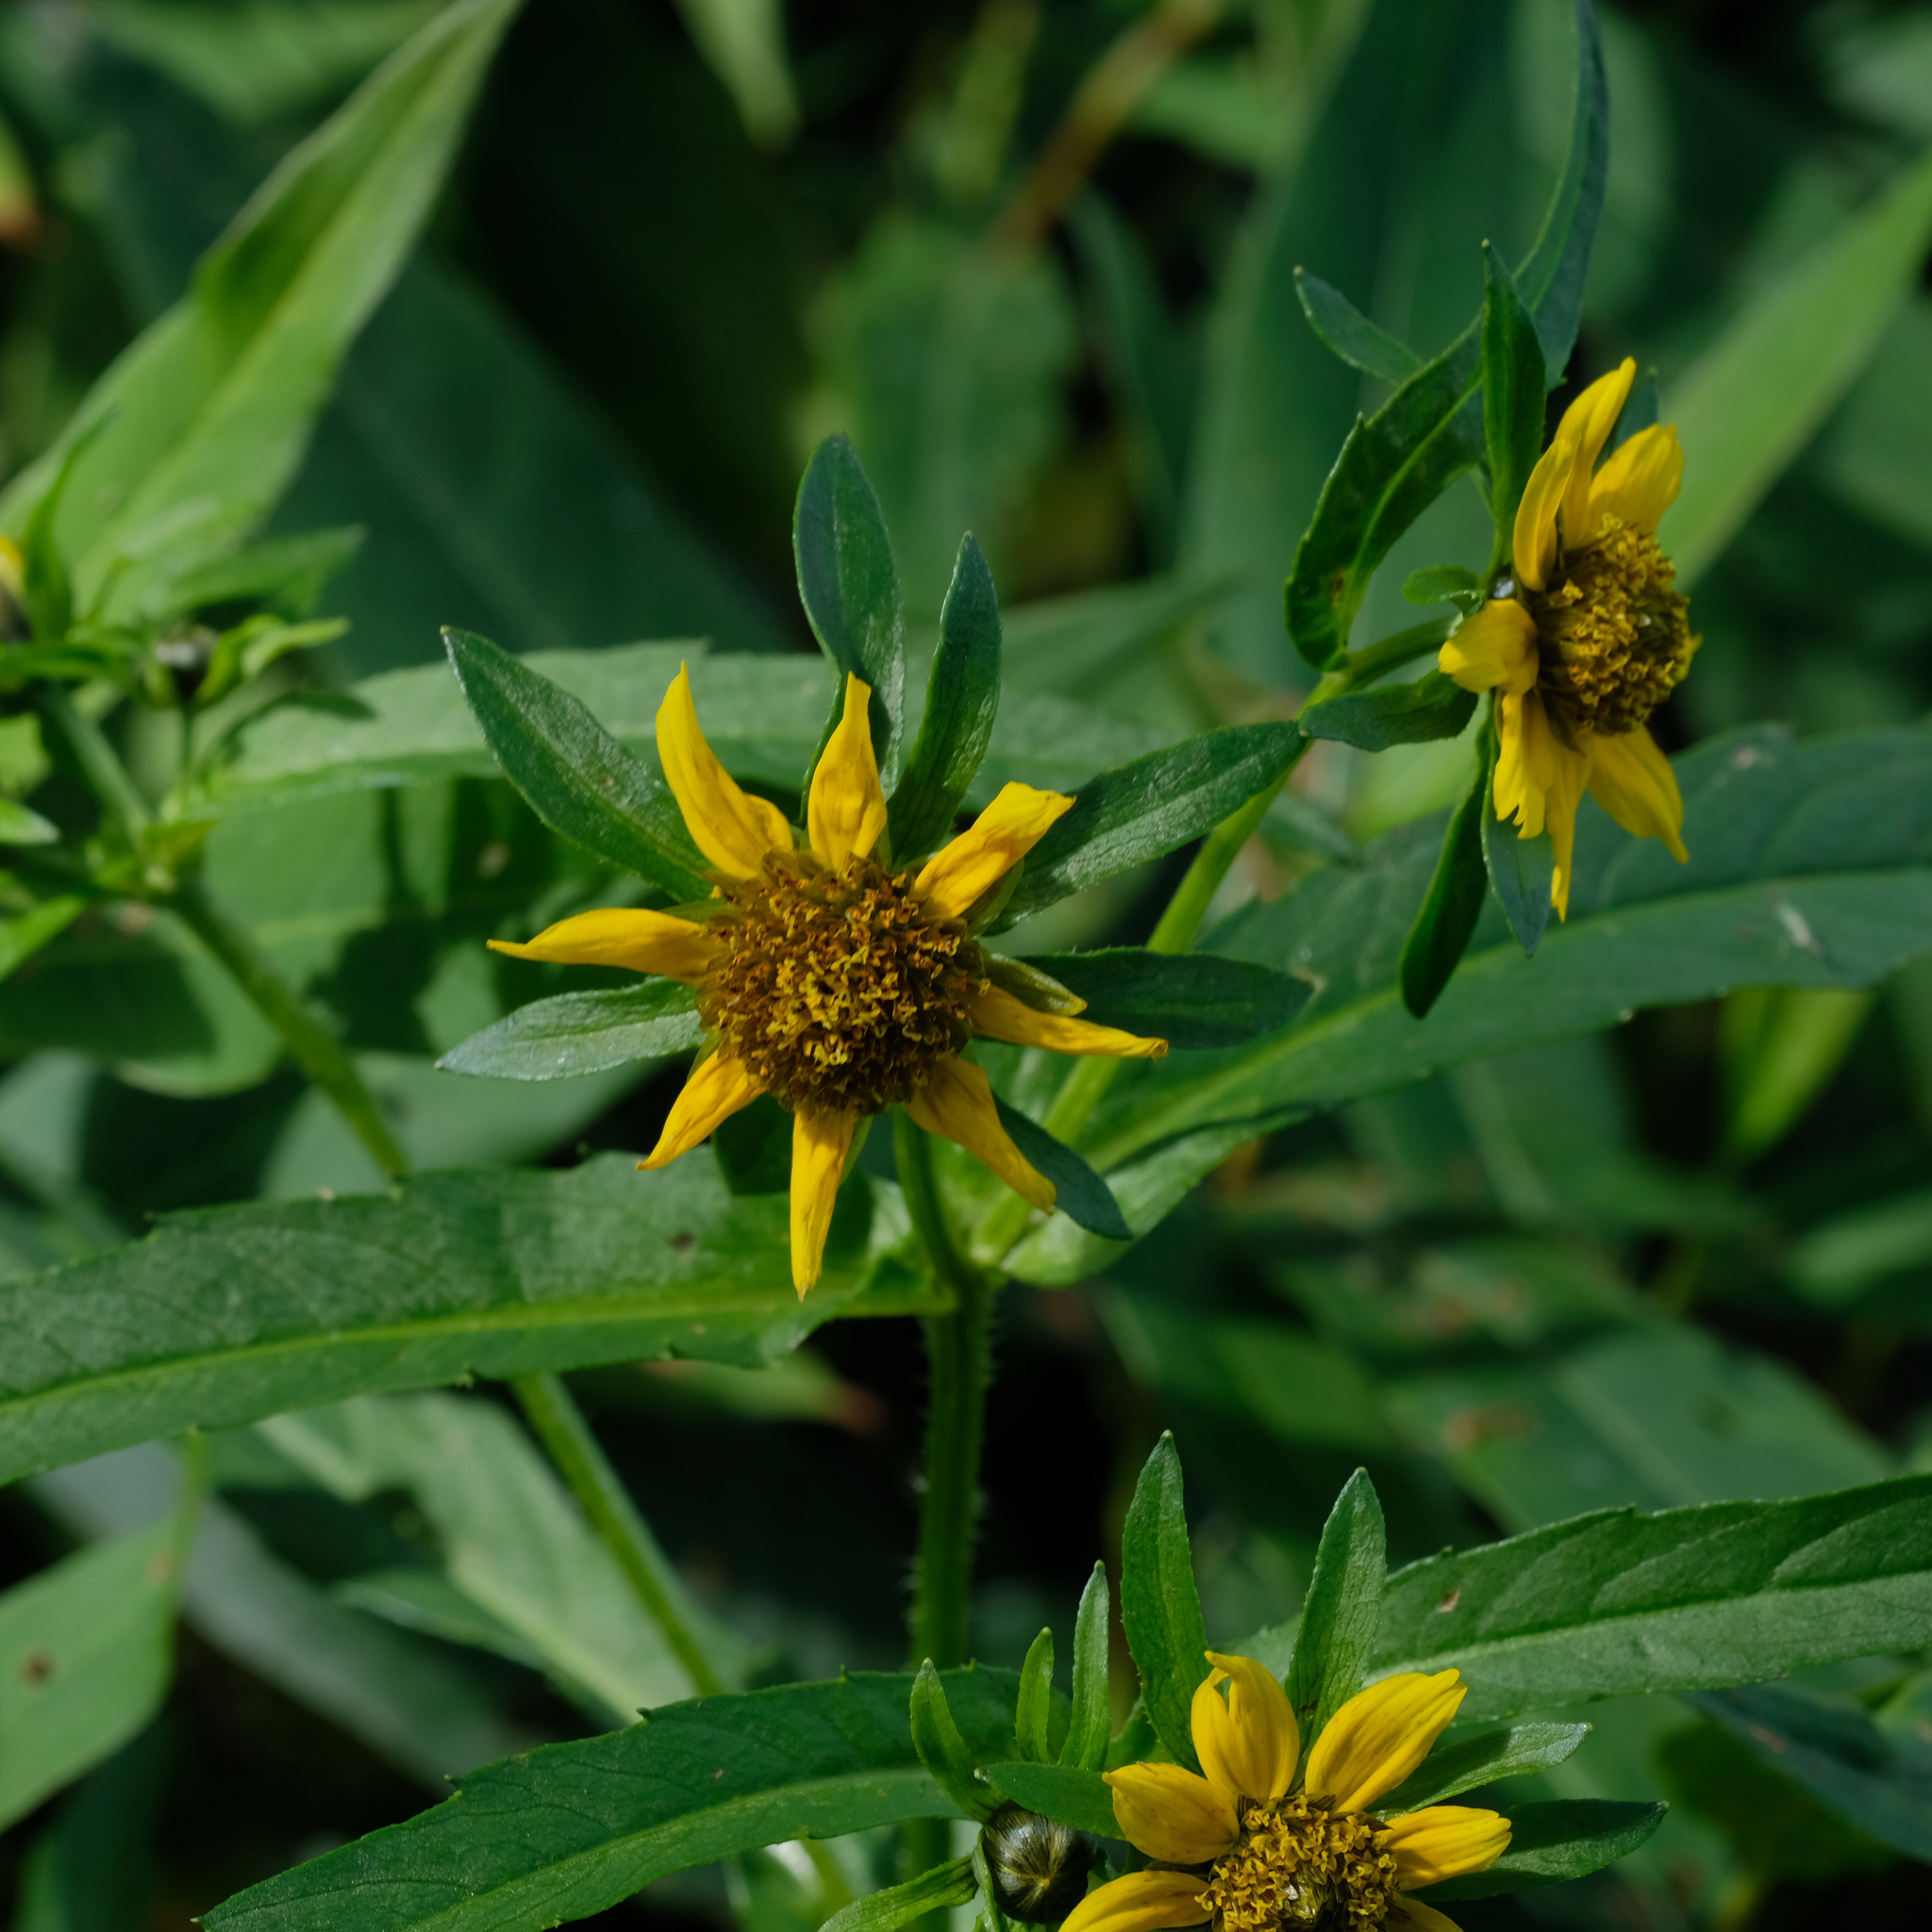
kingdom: Plantae
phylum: Tracheophyta
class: Magnoliopsida
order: Asterales
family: Asteraceae
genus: Bidens
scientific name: Bidens cernua
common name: Nodding bur-marigold
